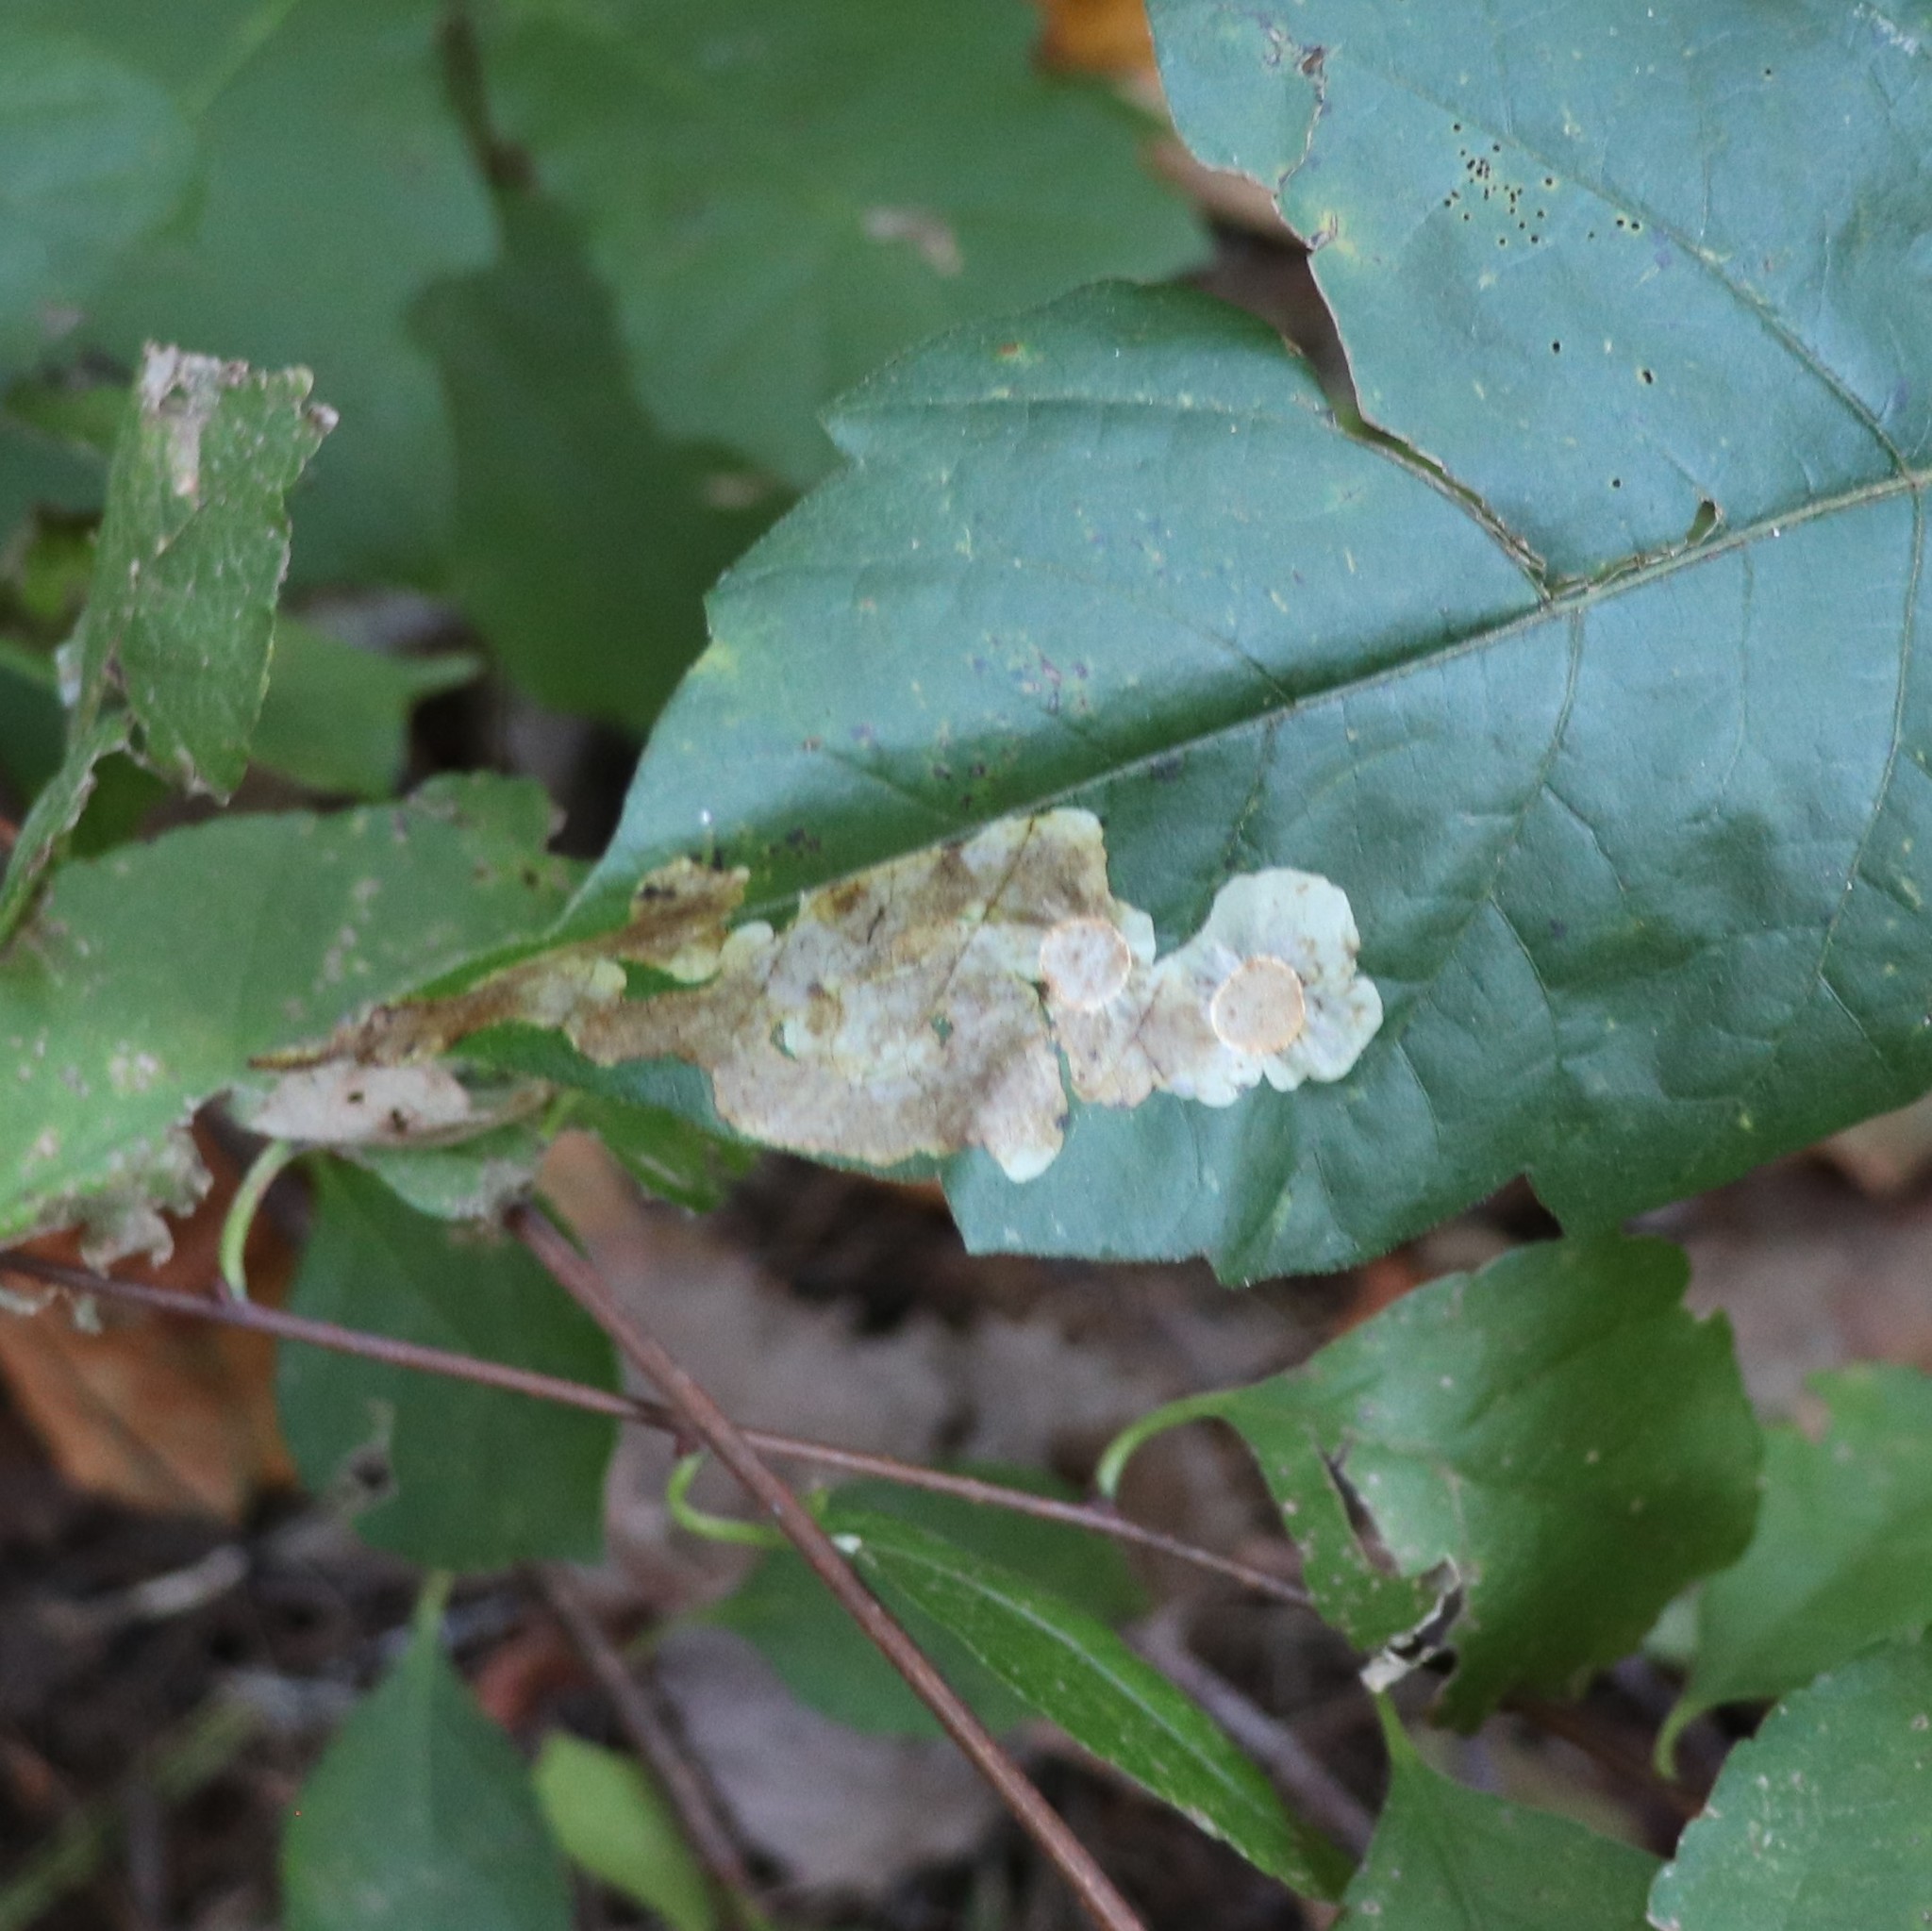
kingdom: Animalia
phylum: Arthropoda
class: Insecta
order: Lepidoptera
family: Gracillariidae
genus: Cameraria
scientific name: Cameraria guttifinitella
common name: Poison ivy leaf-miner moth
